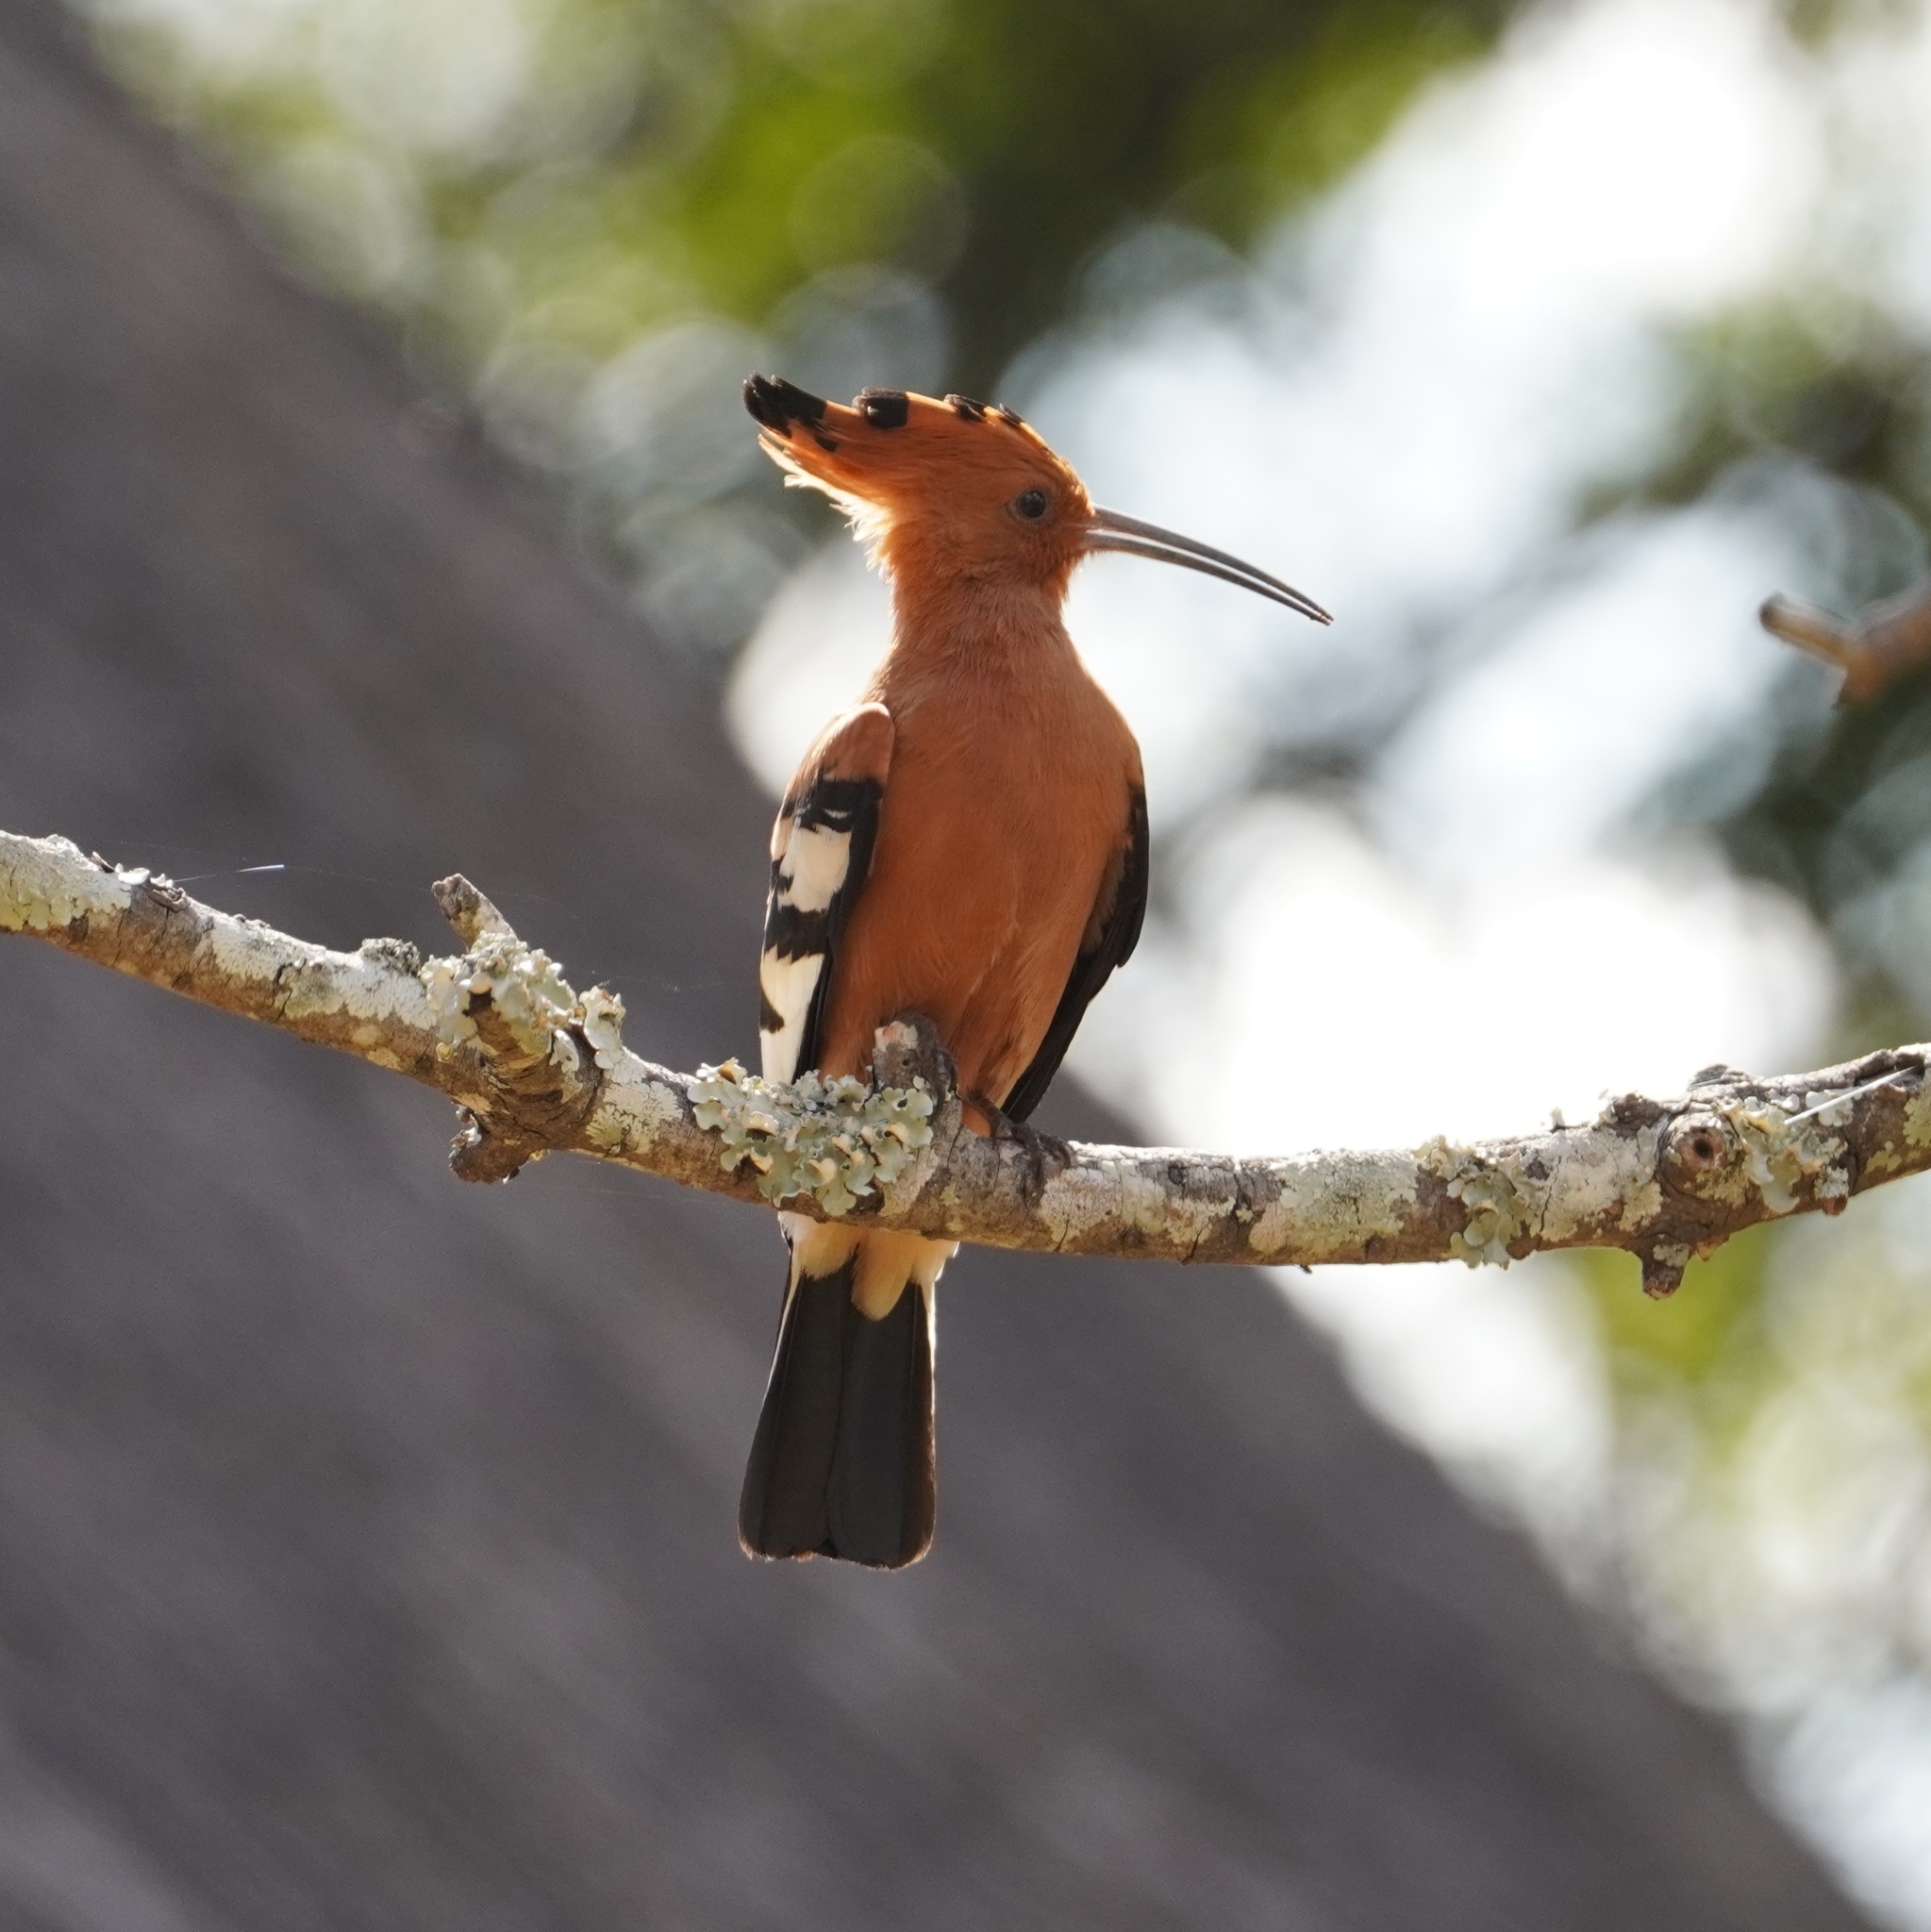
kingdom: Animalia
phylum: Chordata
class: Aves
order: Bucerotiformes
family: Upupidae
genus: Upupa
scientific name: Upupa africana
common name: African hoopoe
